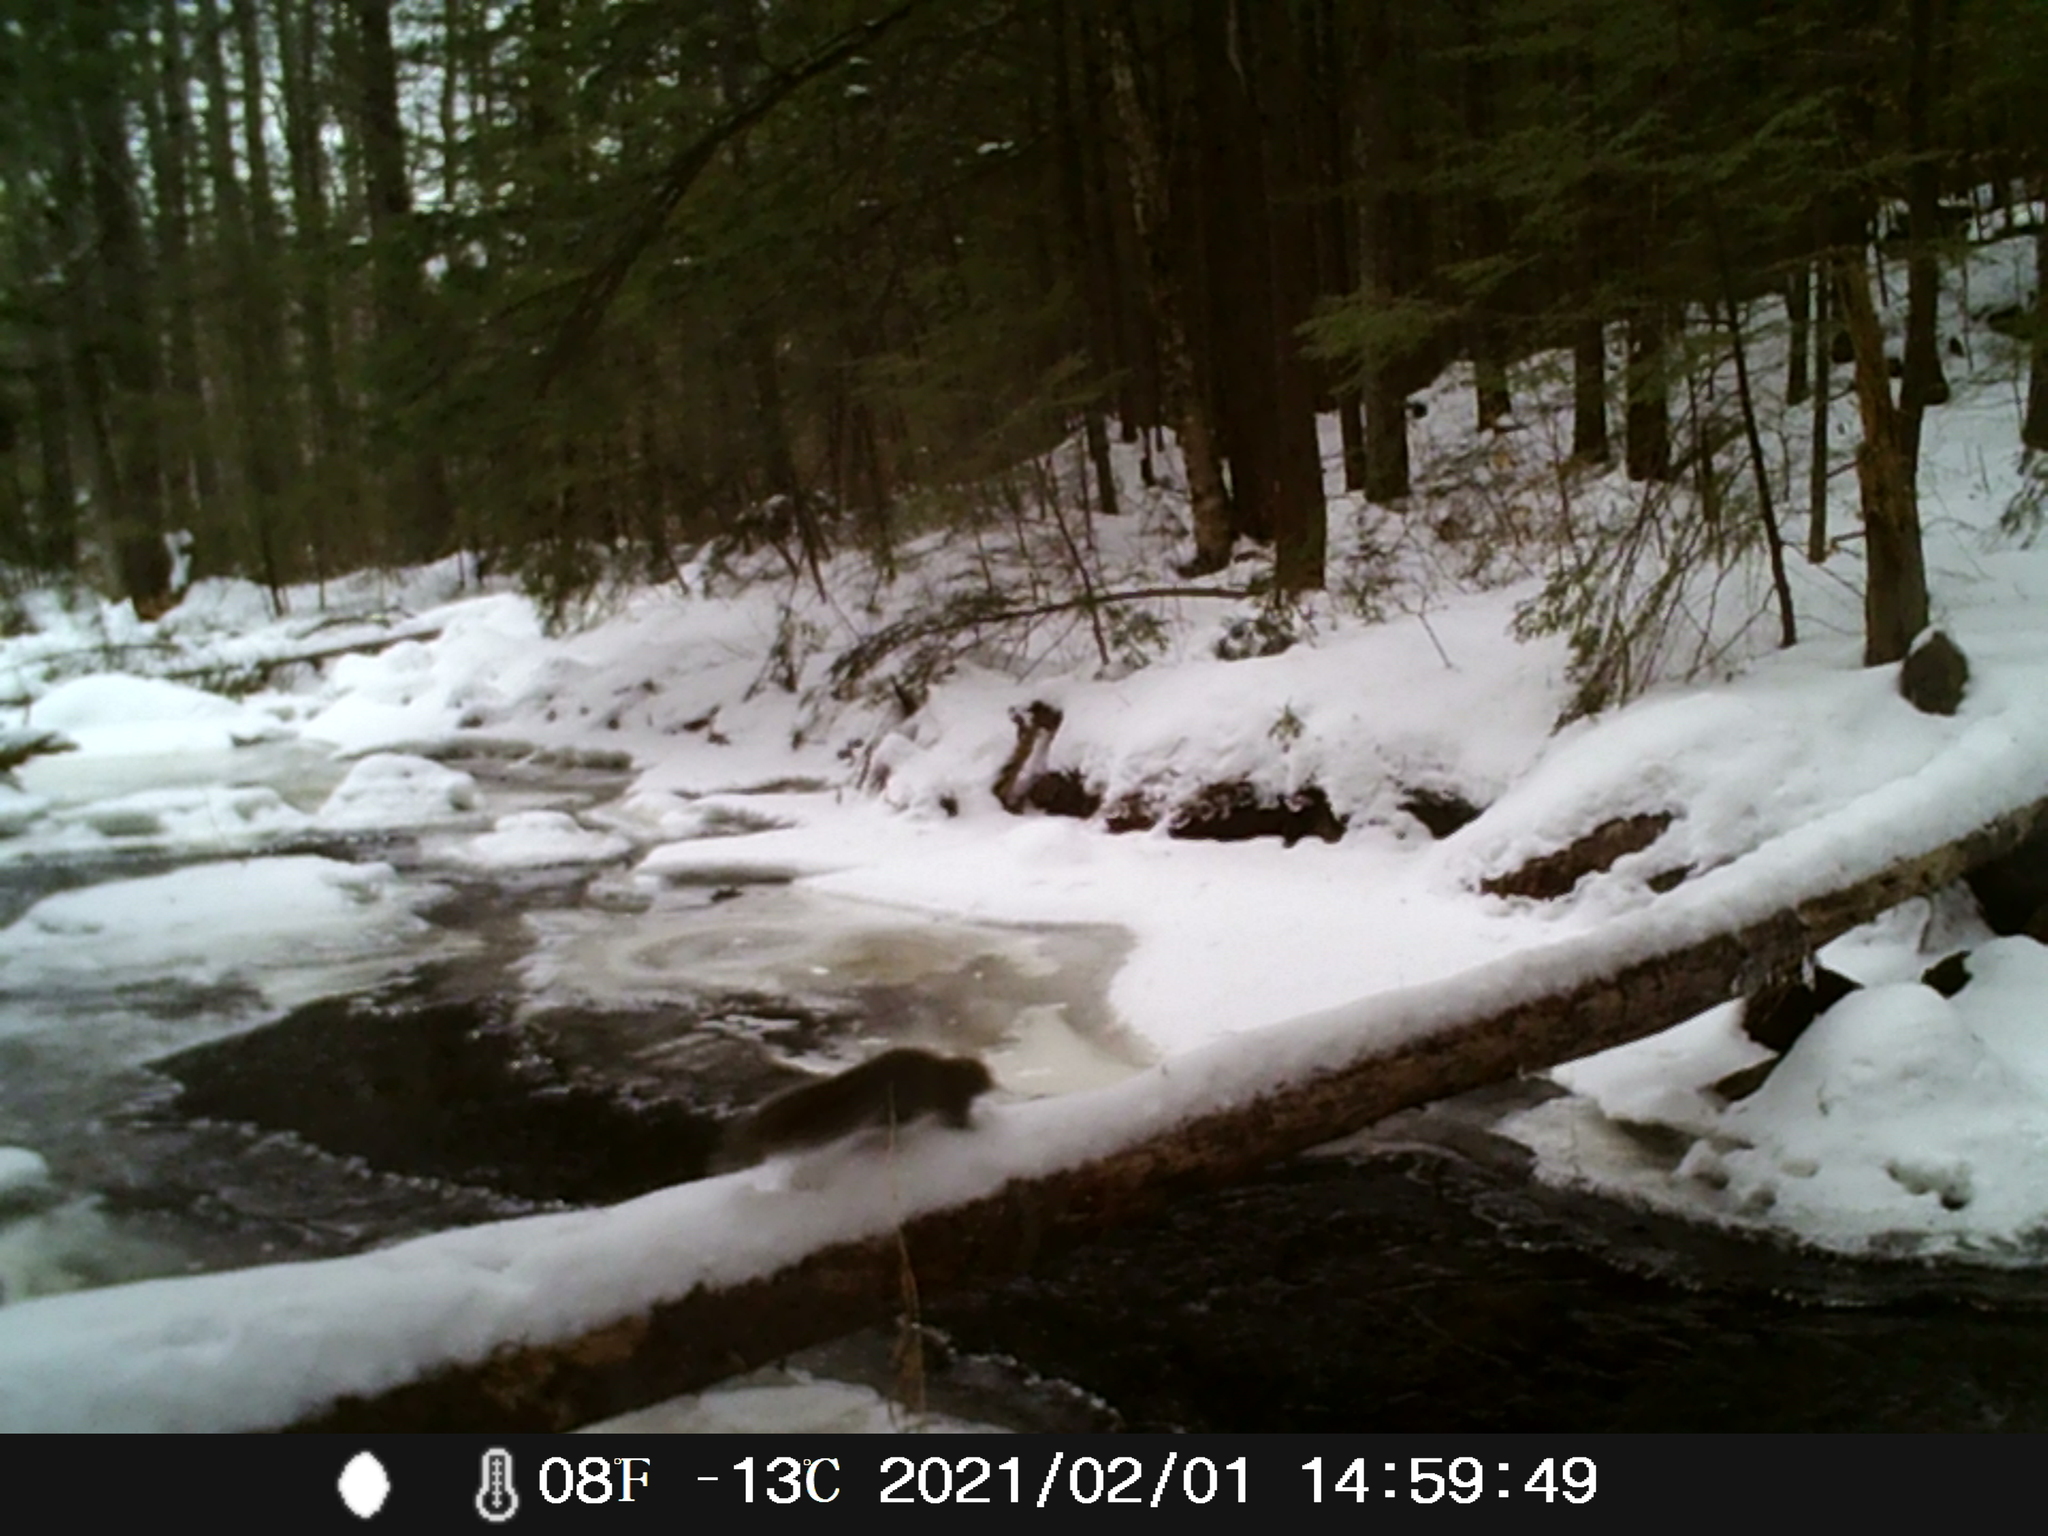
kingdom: Animalia
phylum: Chordata
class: Mammalia
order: Rodentia
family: Sciuridae
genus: Sciurus
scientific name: Sciurus carolinensis
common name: Eastern gray squirrel
